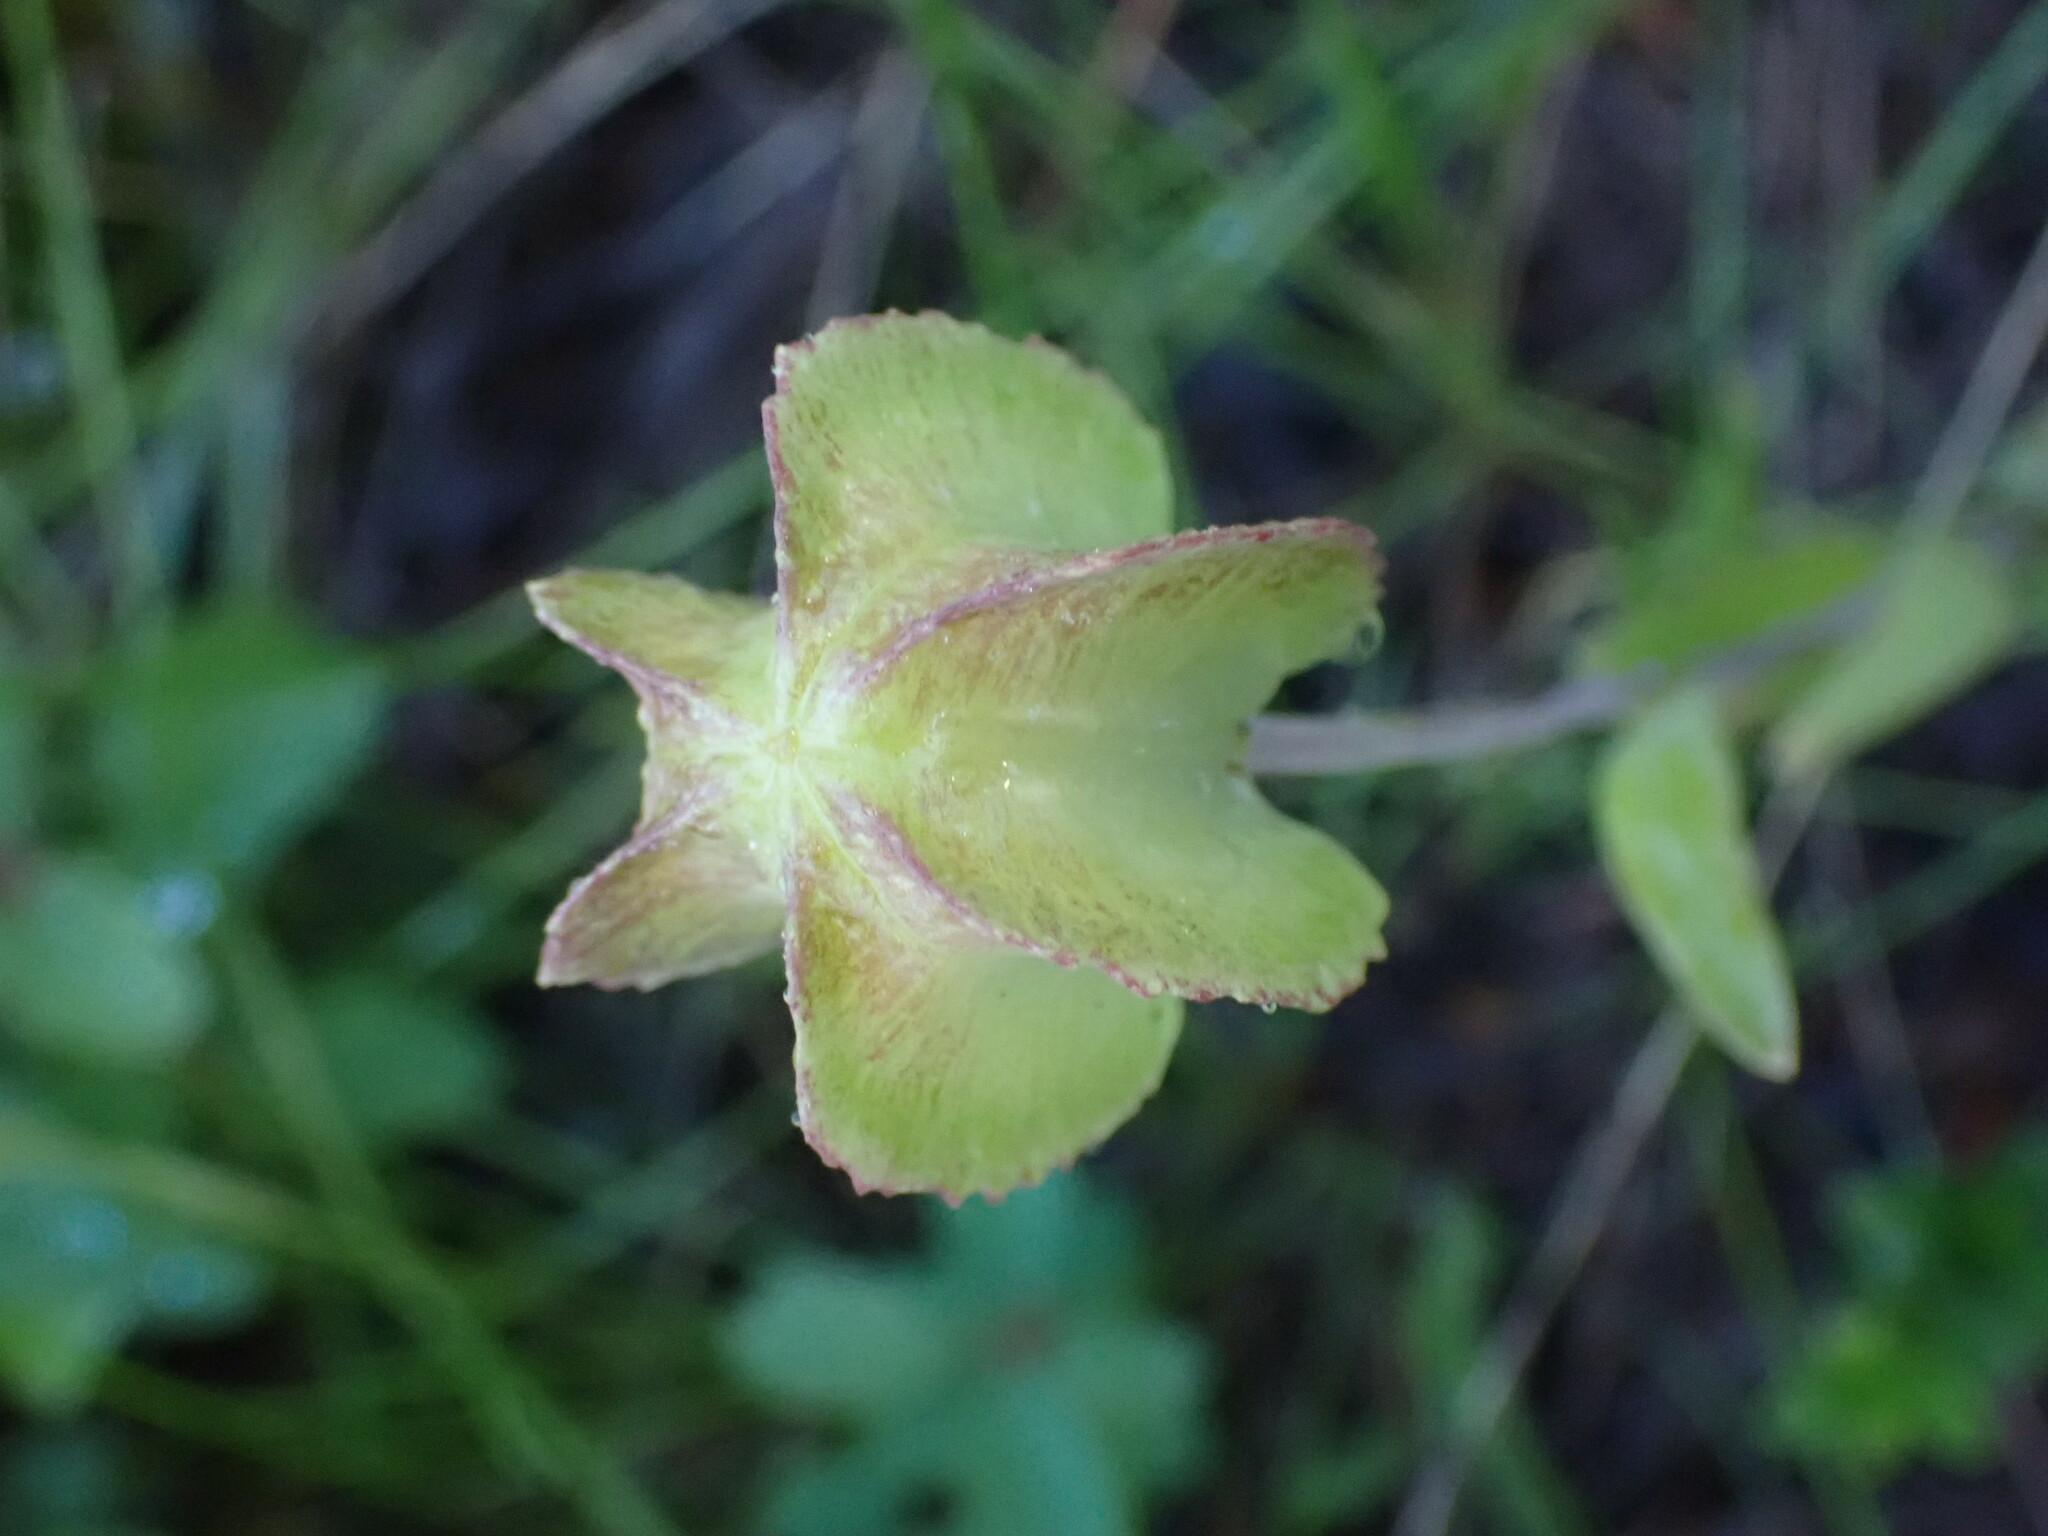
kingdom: Plantae
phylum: Tracheophyta
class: Liliopsida
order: Liliales
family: Liliaceae
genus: Fritillaria
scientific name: Fritillaria affinis
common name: Ojai fritillary
